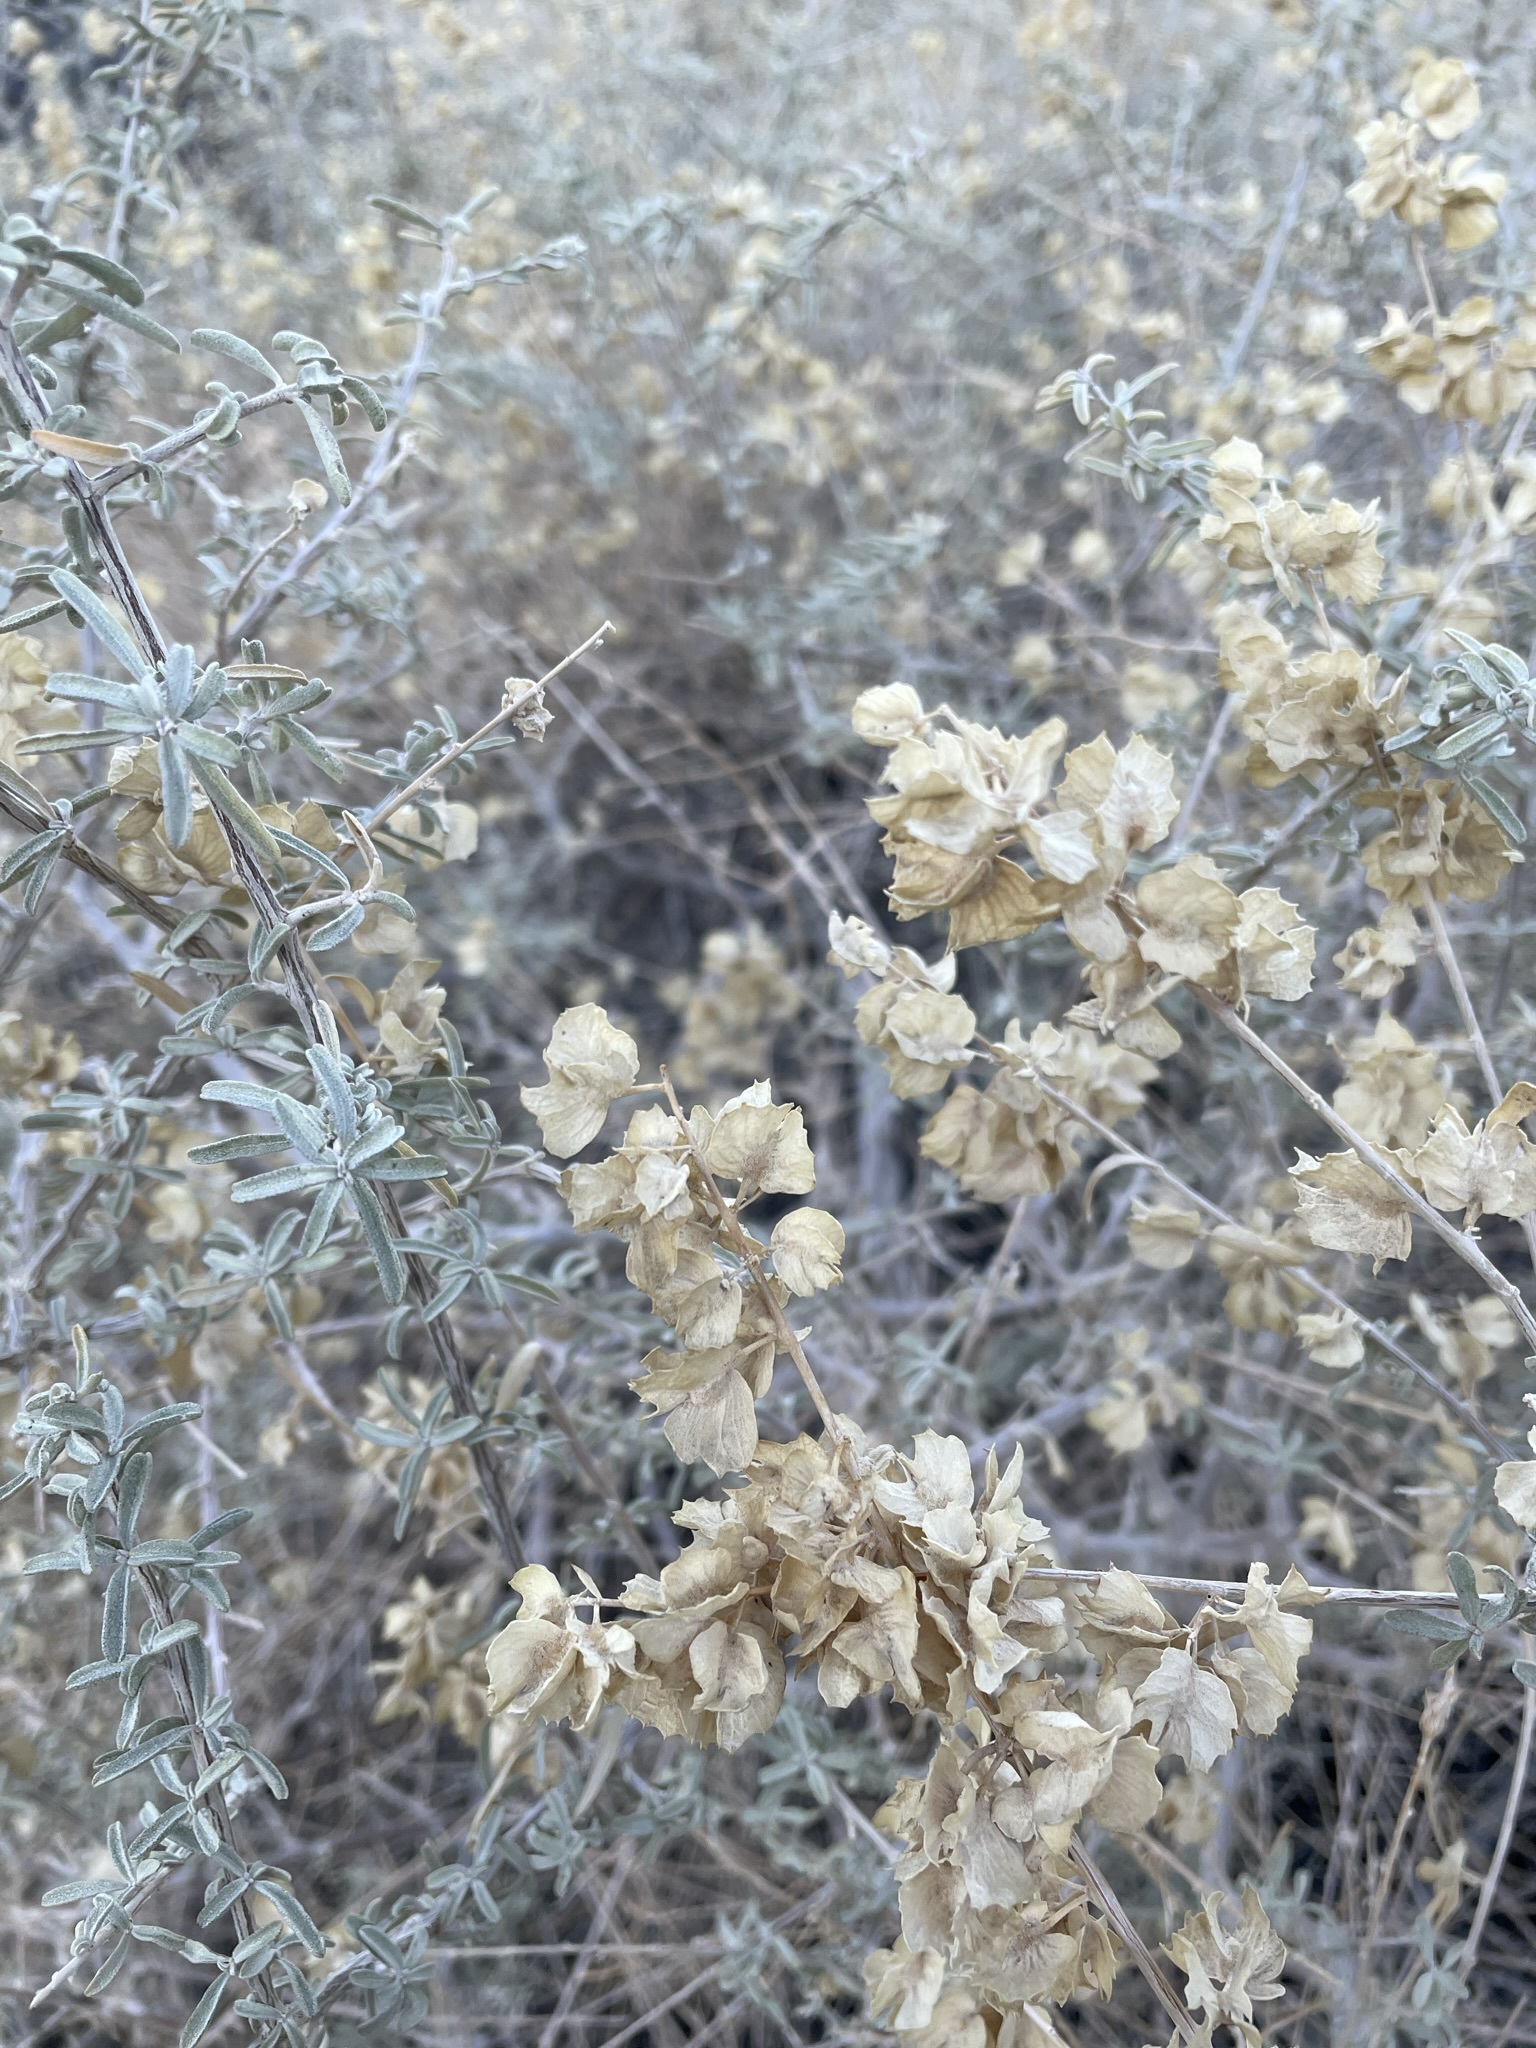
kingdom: Plantae
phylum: Tracheophyta
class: Magnoliopsida
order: Caryophyllales
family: Amaranthaceae
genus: Atriplex
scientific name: Atriplex canescens
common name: Four-wing saltbush
